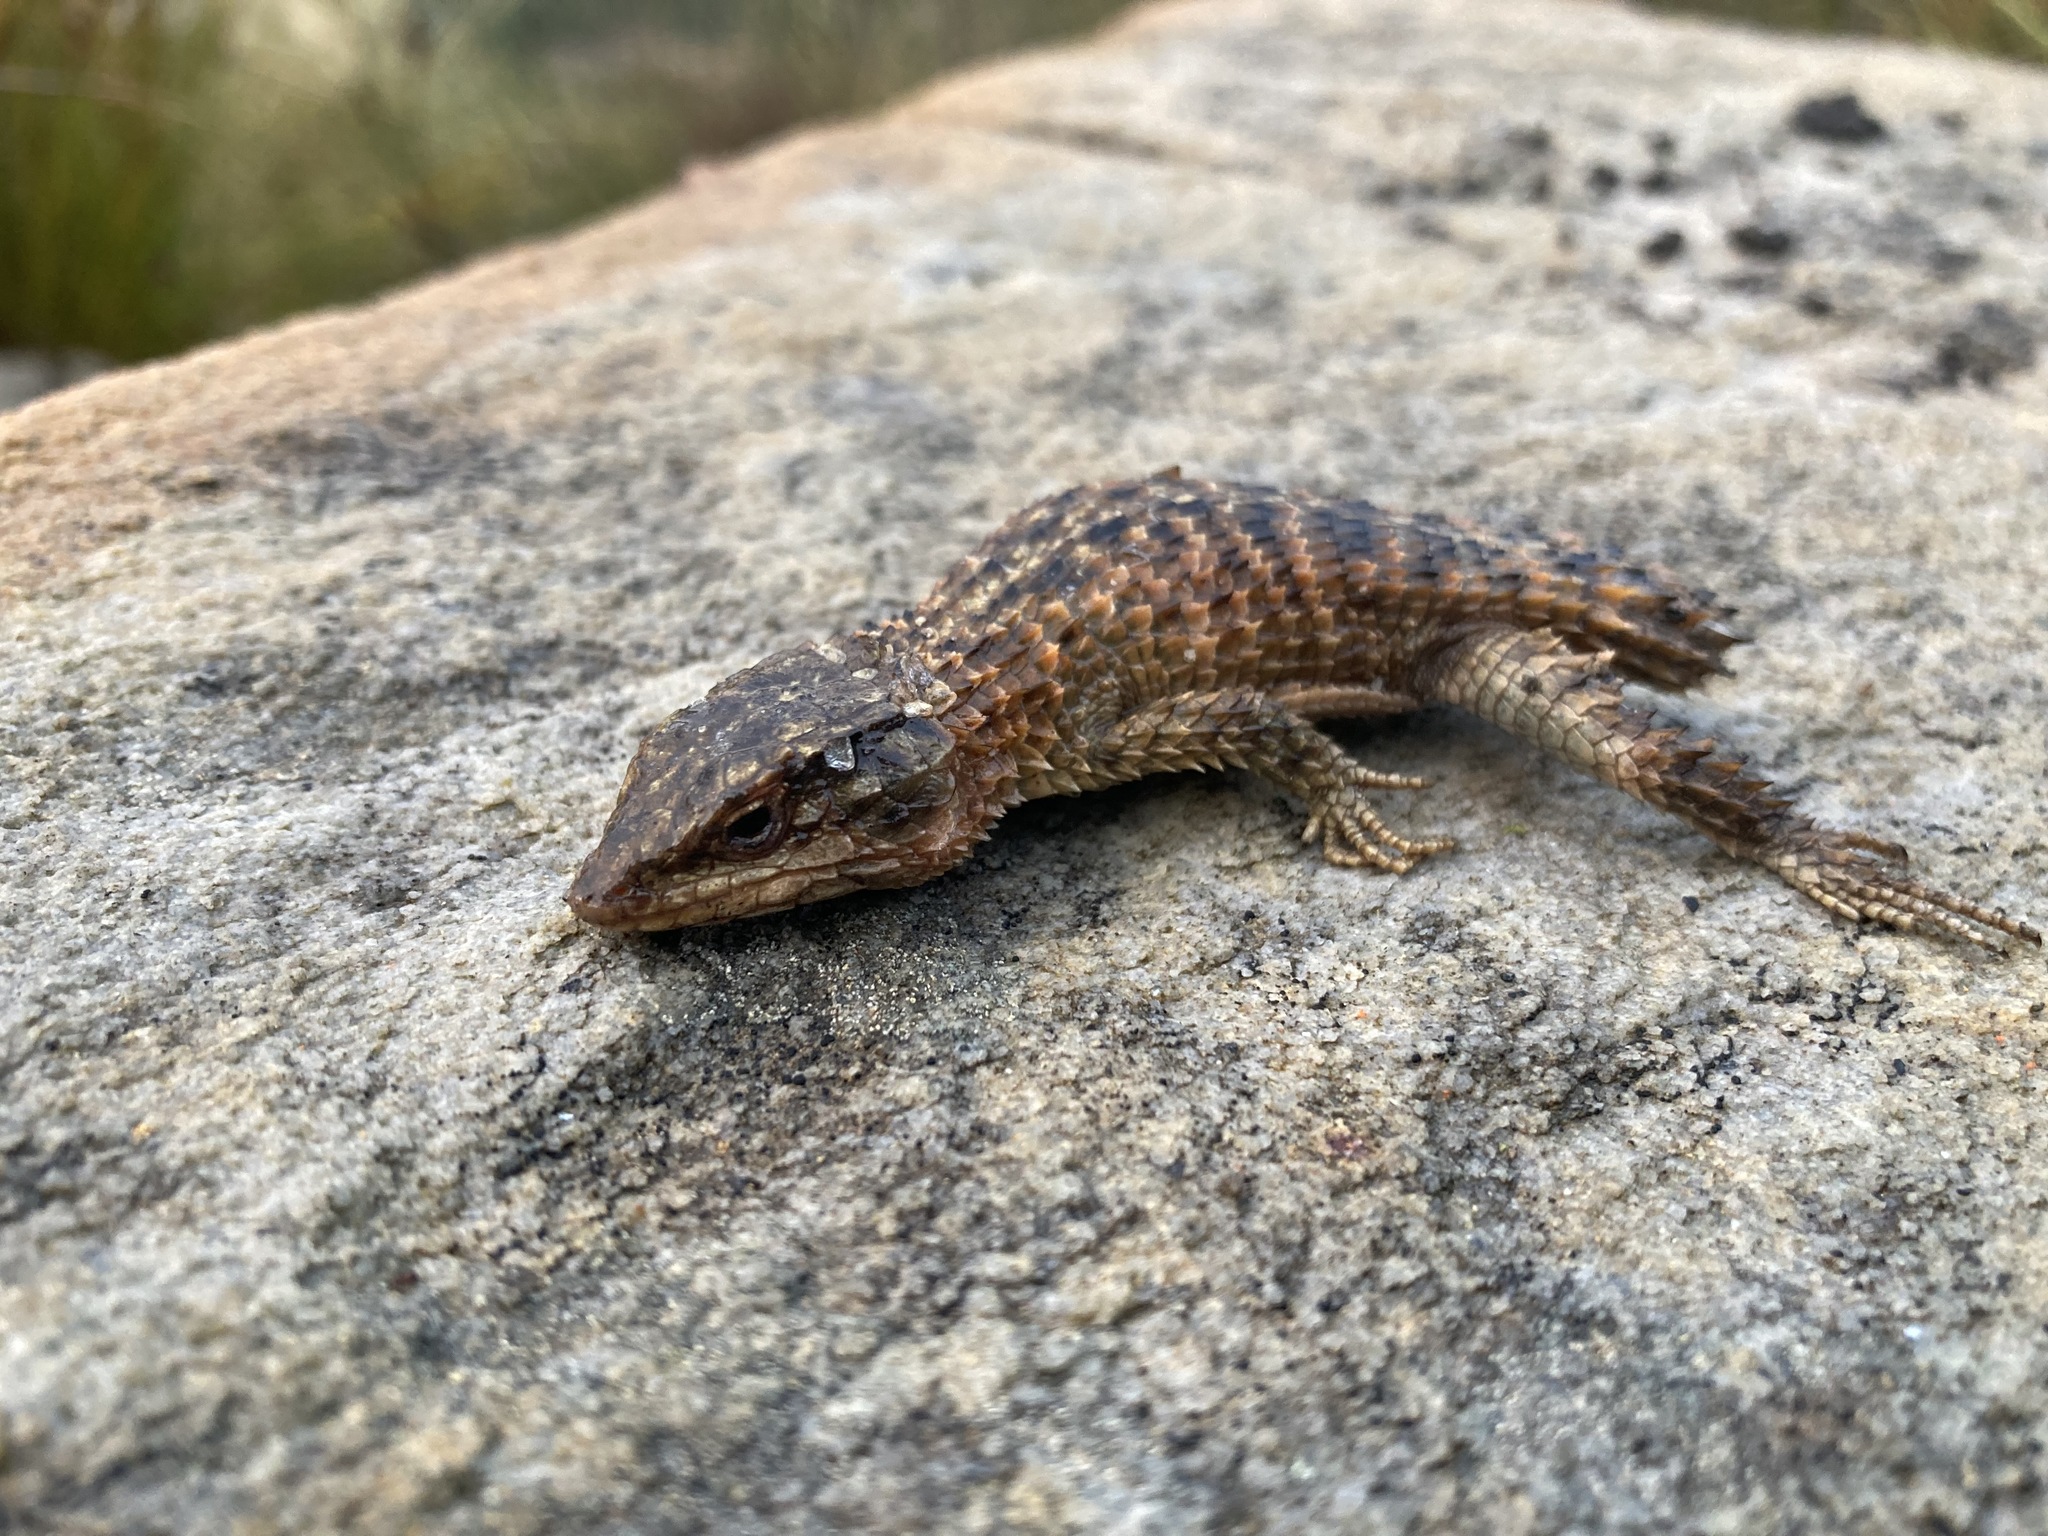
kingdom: Animalia
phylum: Chordata
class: Squamata
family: Cordylidae
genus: Cordylus
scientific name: Cordylus cordylus
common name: Cape girdled lizard
